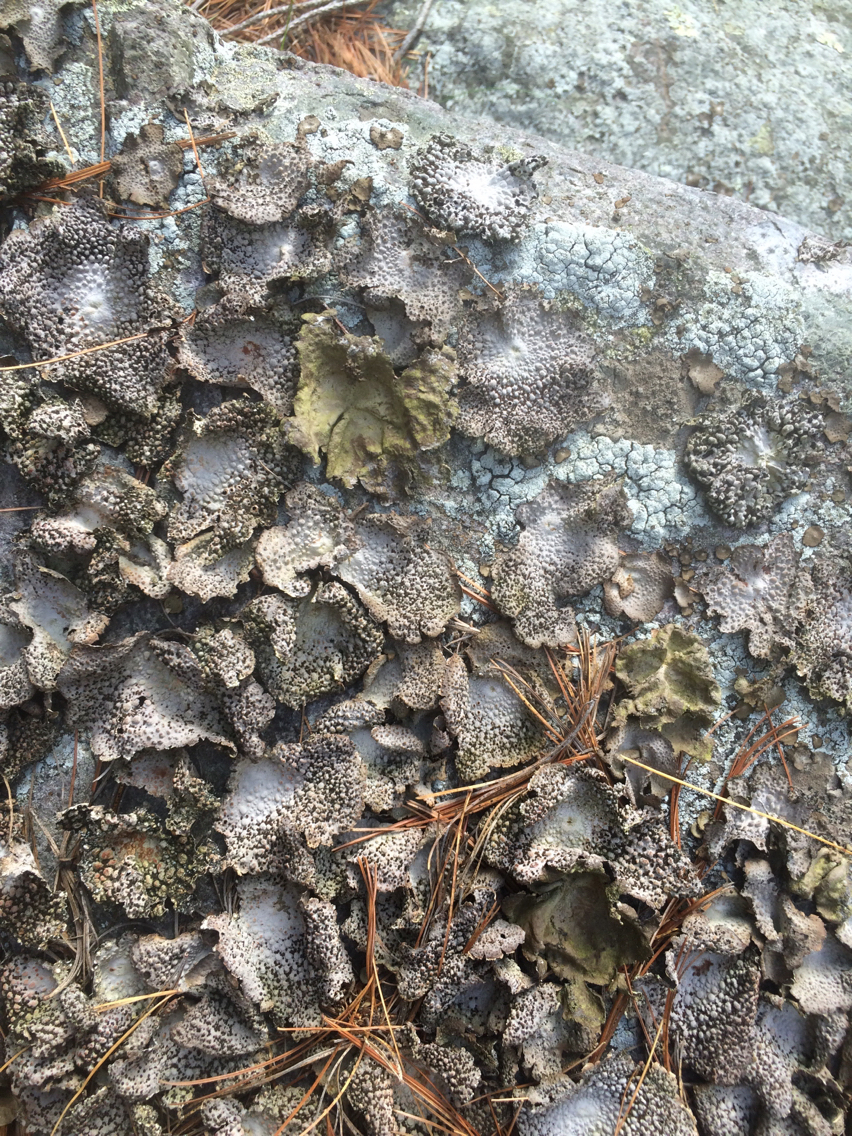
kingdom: Fungi
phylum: Ascomycota
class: Lecanoromycetes
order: Umbilicariales
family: Umbilicariaceae
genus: Lasallia
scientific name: Lasallia papulosa
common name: Common toadskin lichen
